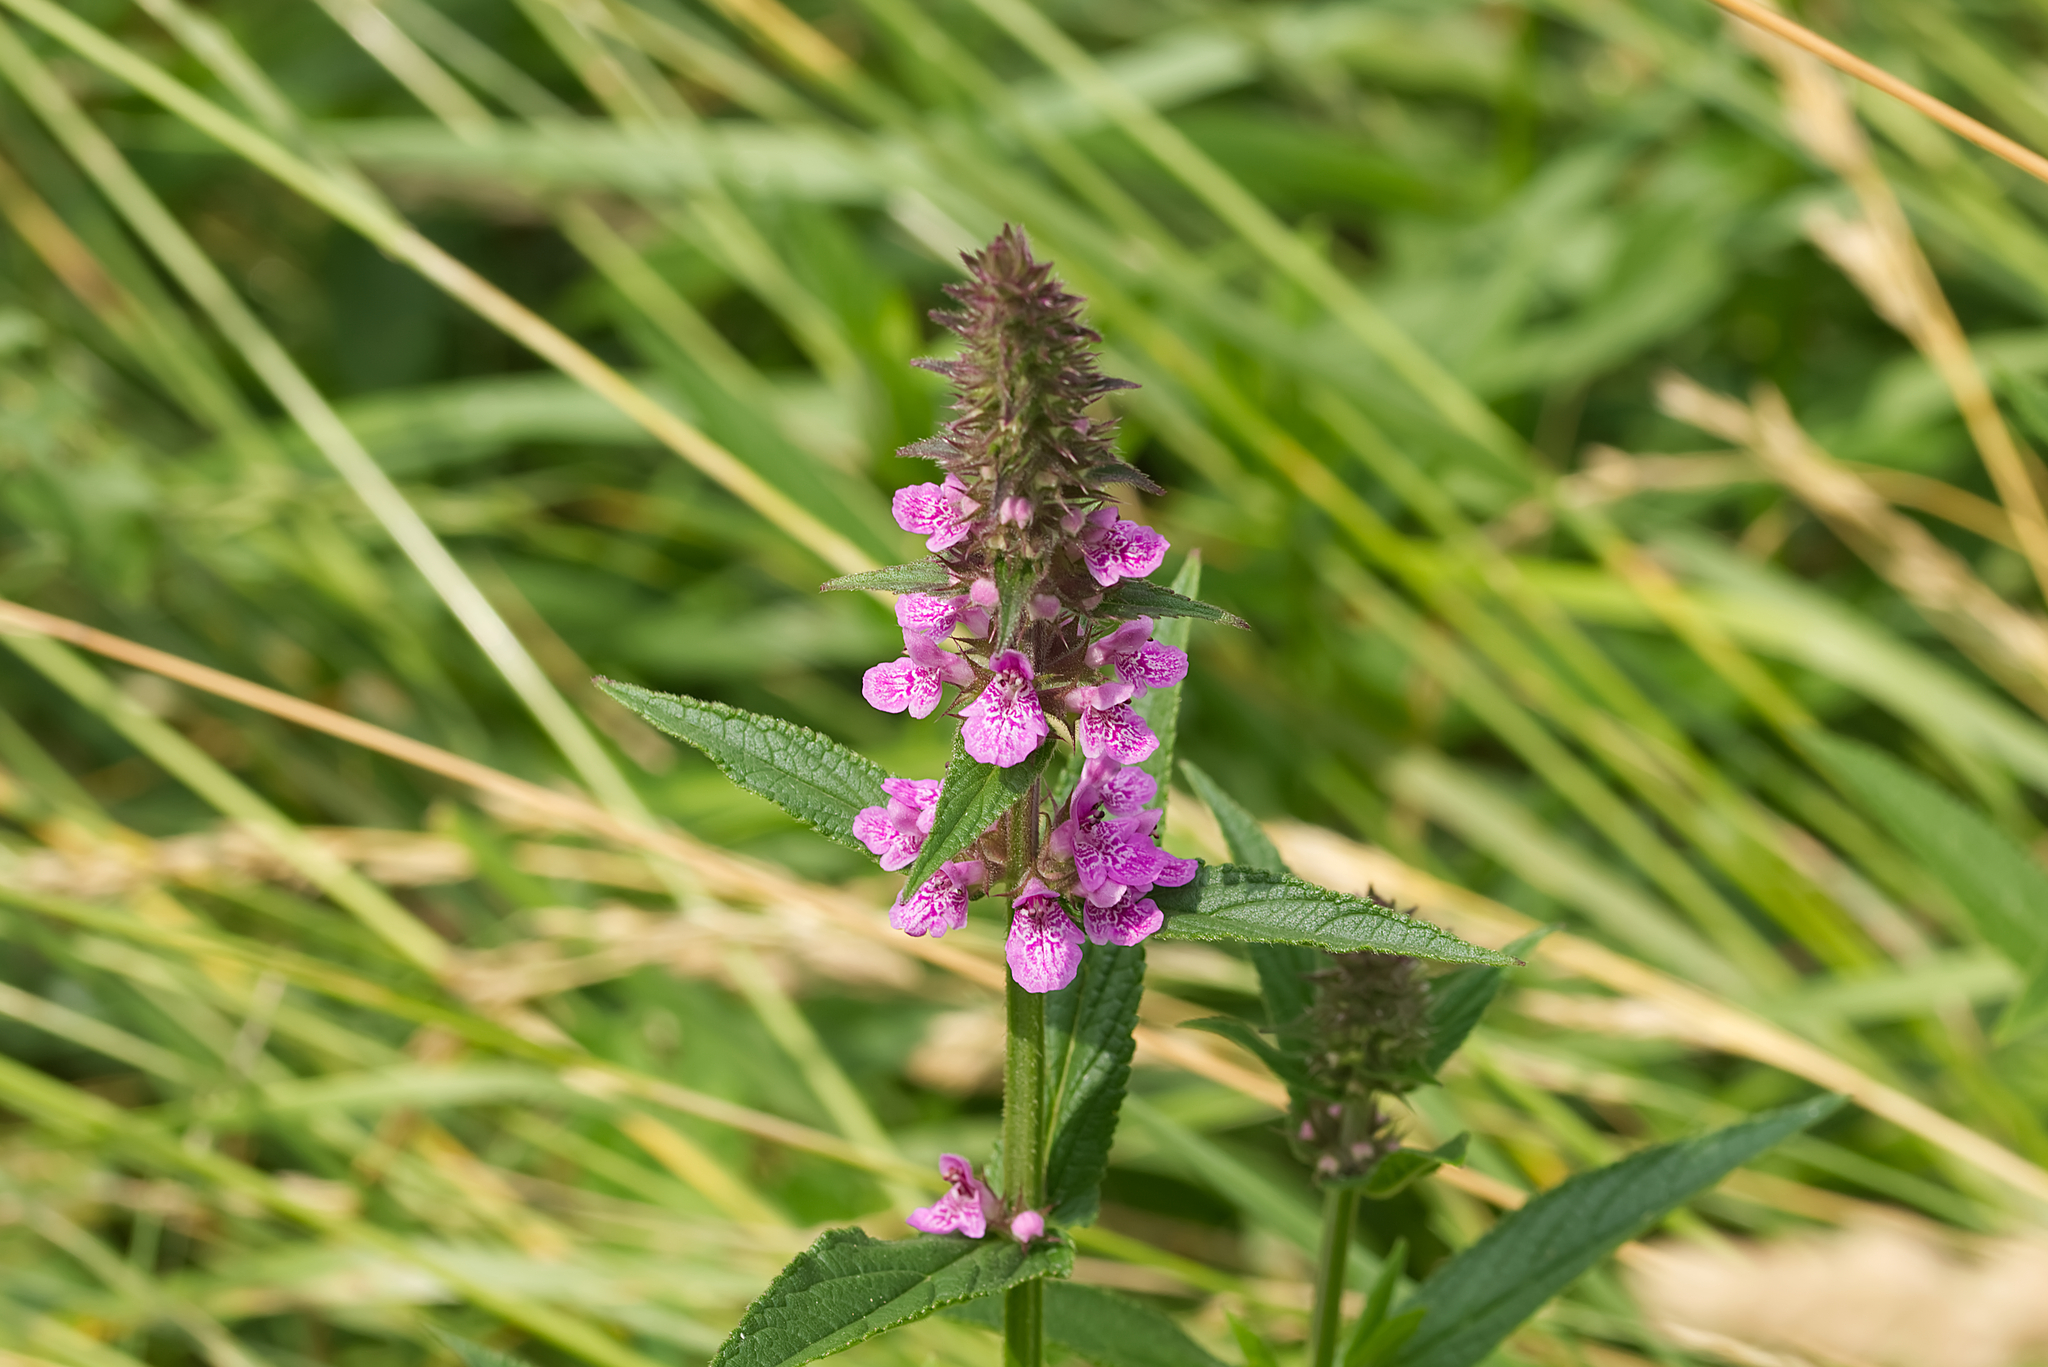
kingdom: Plantae
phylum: Tracheophyta
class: Magnoliopsida
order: Lamiales
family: Lamiaceae
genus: Stachys
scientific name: Stachys palustris
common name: Marsh woundwort
